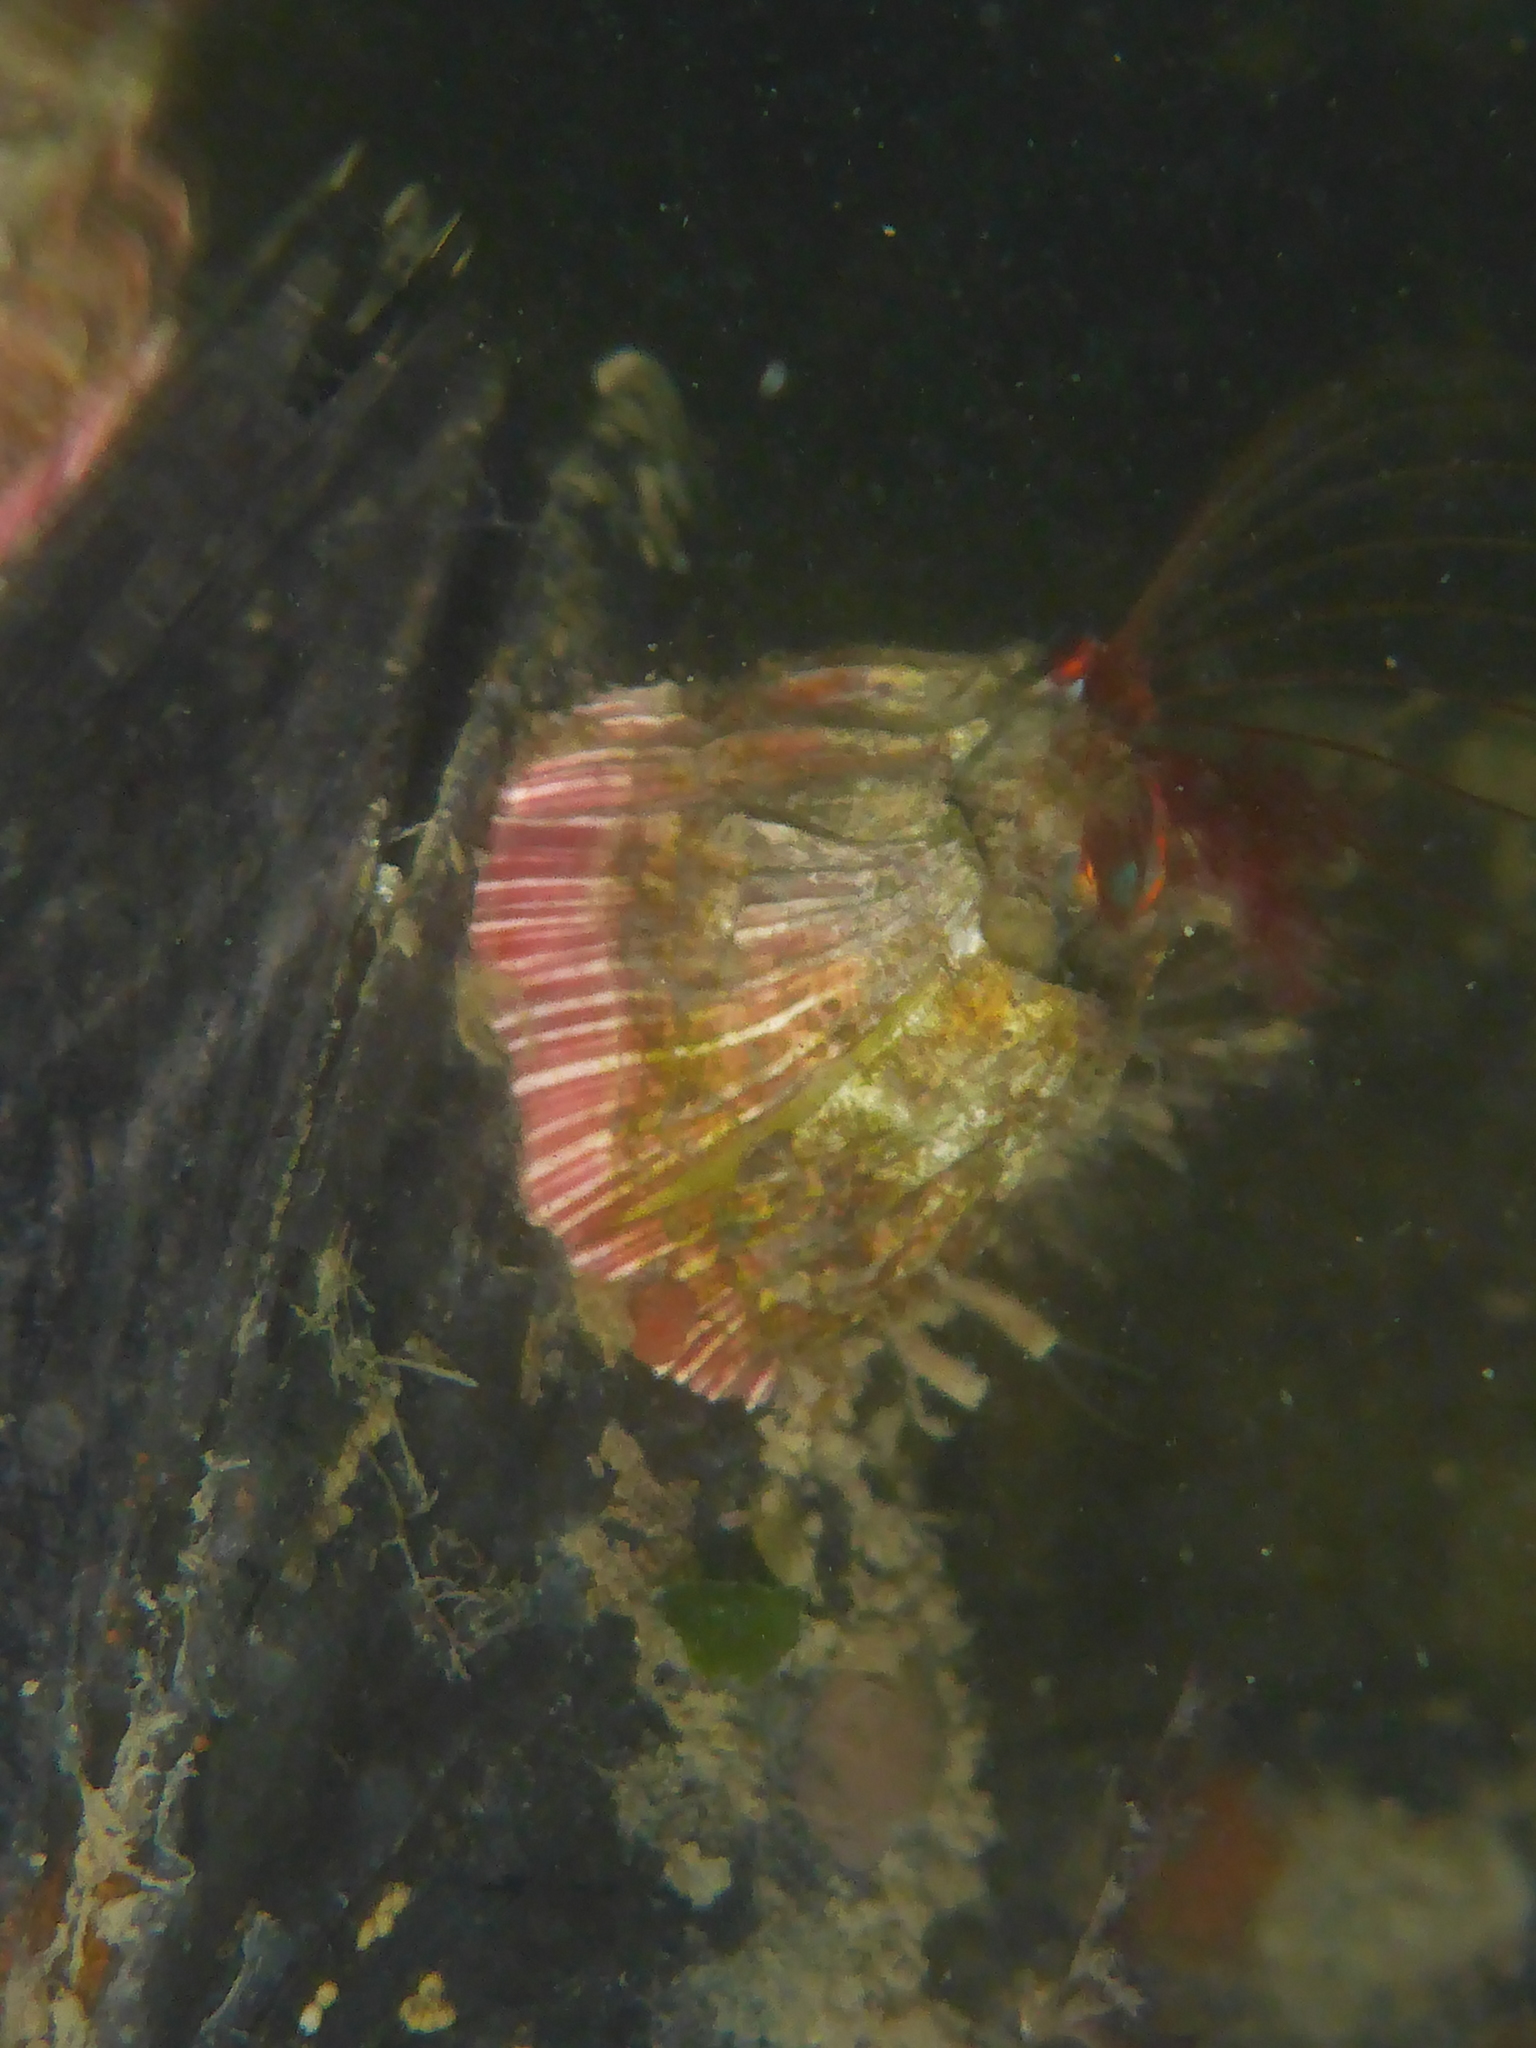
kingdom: Animalia
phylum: Arthropoda
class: Maxillopoda
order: Sessilia
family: Balanidae
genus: Megabalanus
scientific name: Megabalanus californicus
